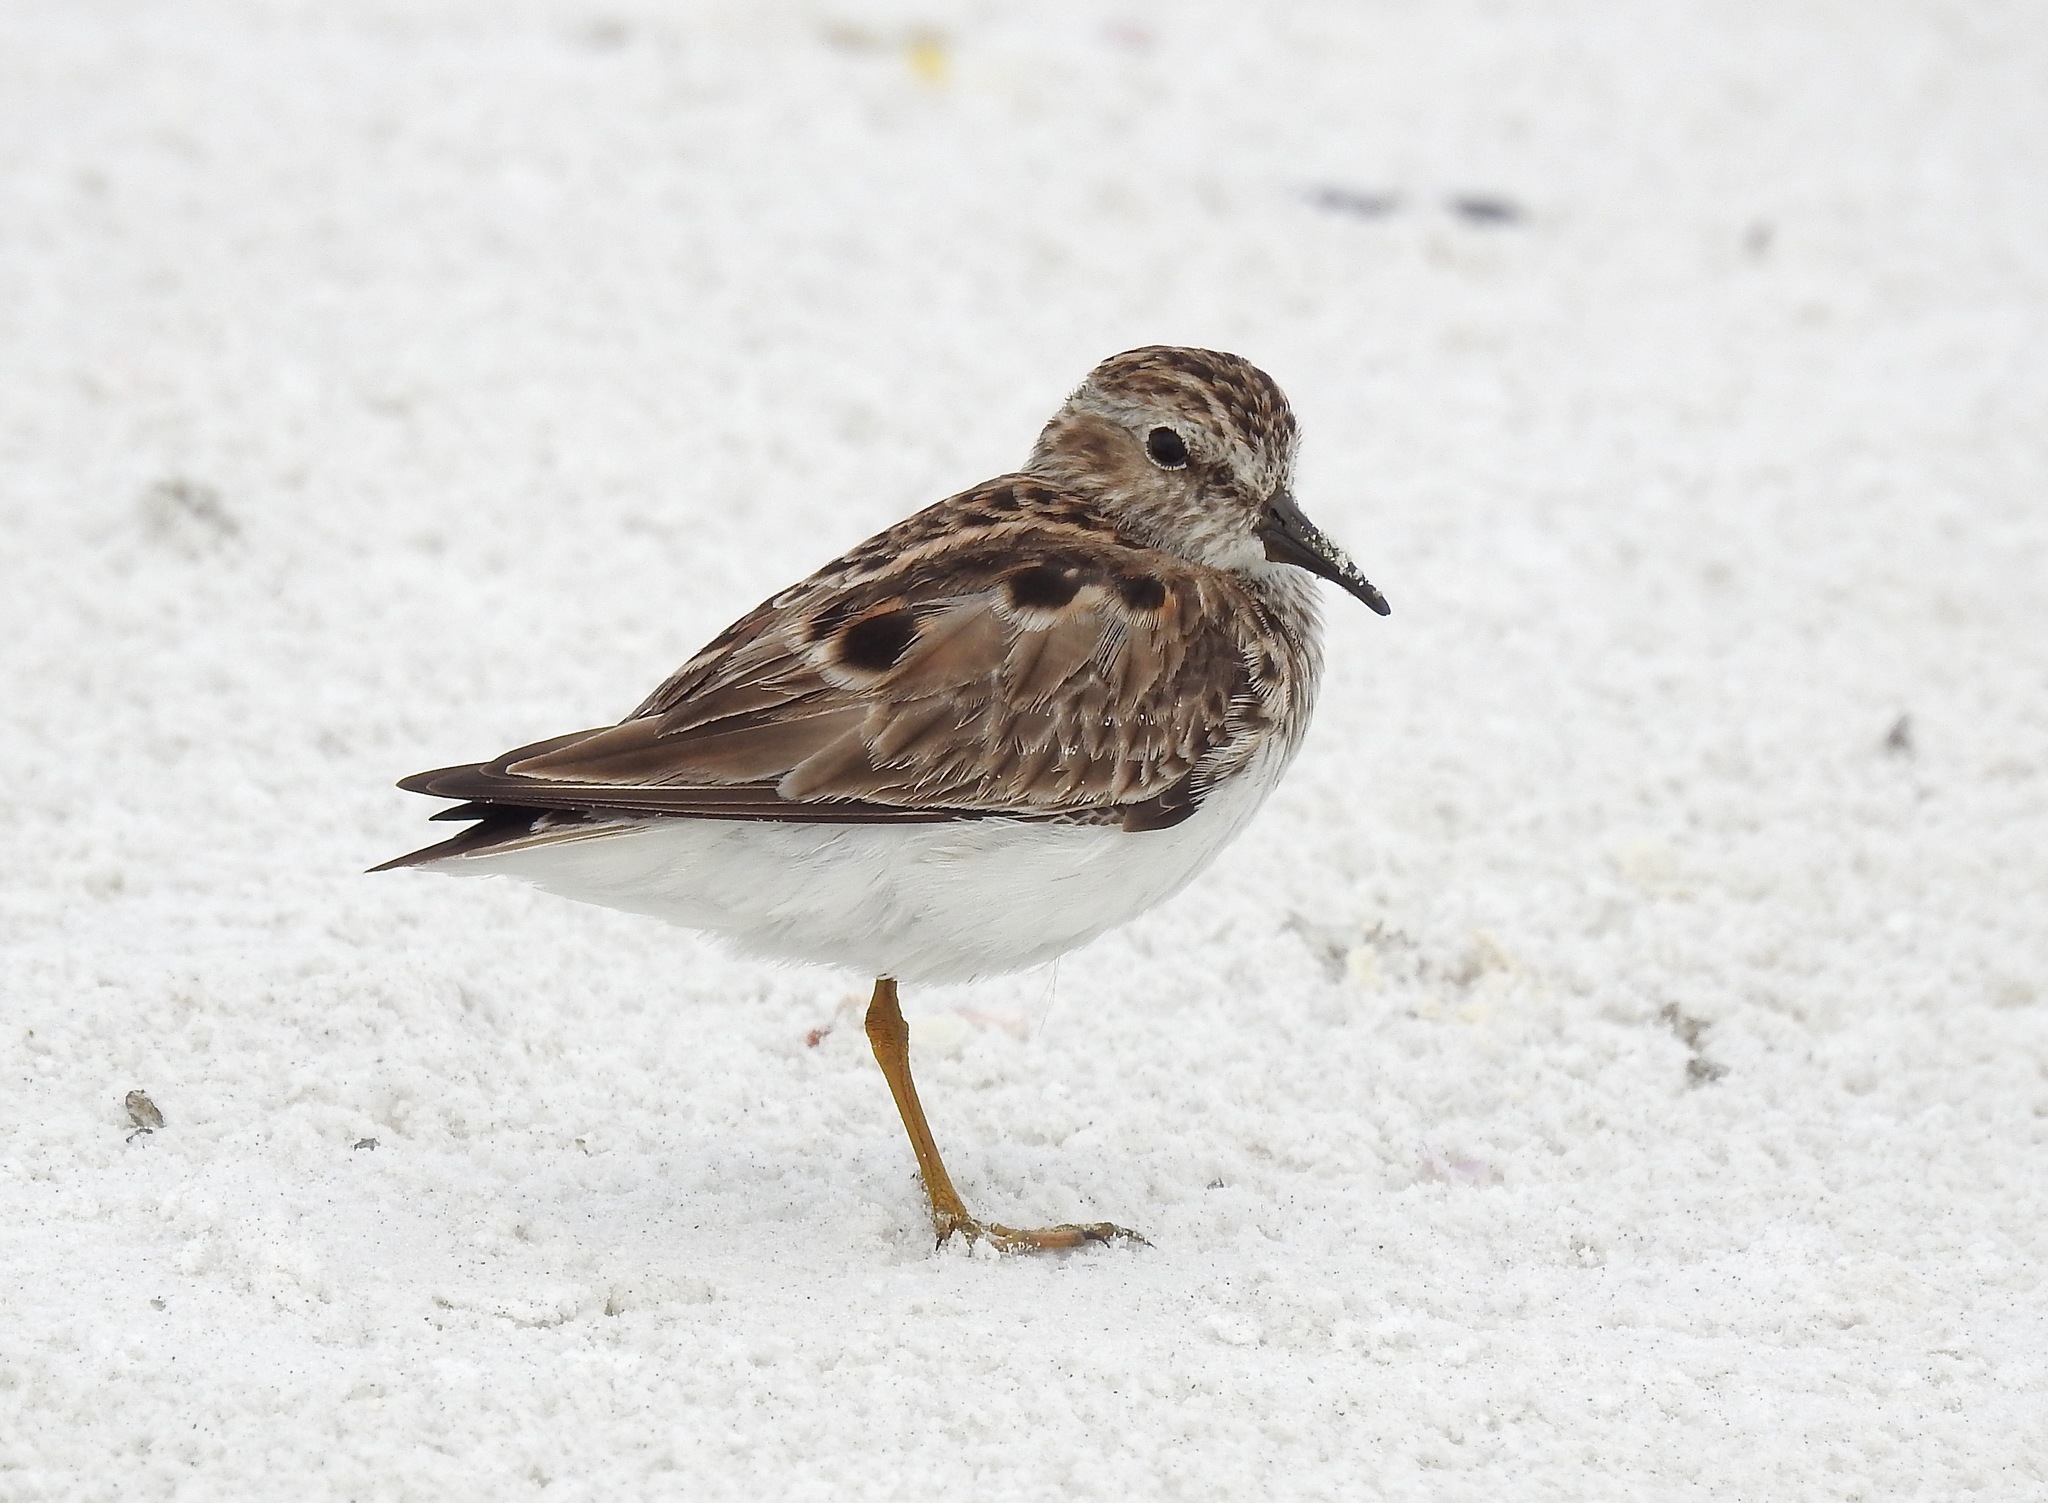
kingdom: Animalia
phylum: Chordata
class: Aves
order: Charadriiformes
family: Scolopacidae
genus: Calidris
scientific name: Calidris minutilla
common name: Least sandpiper
